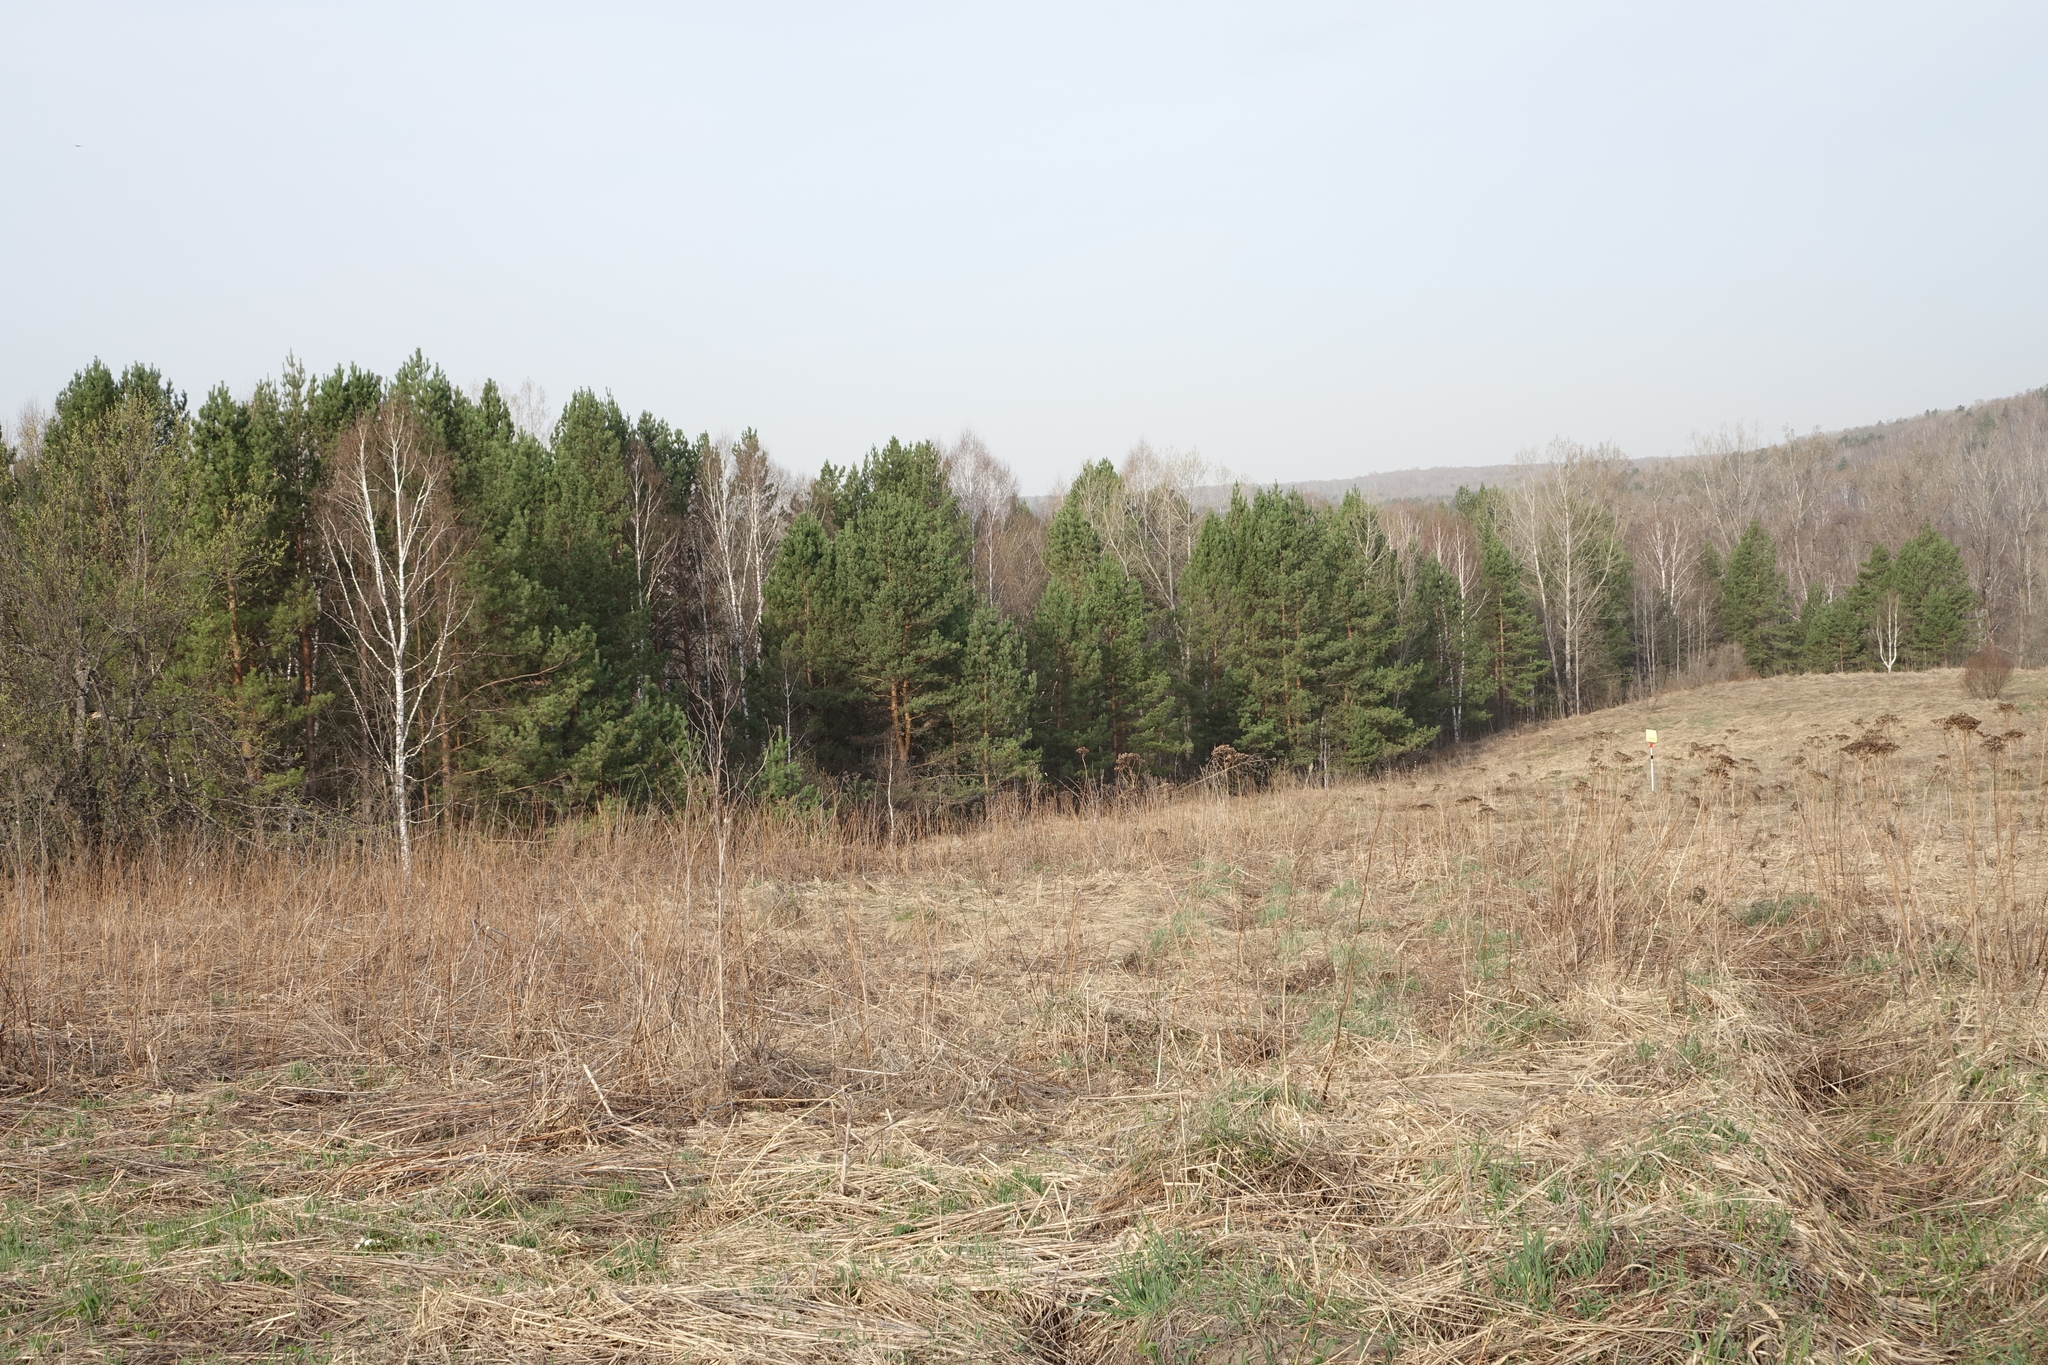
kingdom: Plantae
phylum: Tracheophyta
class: Pinopsida
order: Pinales
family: Pinaceae
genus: Pinus
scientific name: Pinus sylvestris
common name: Scots pine
